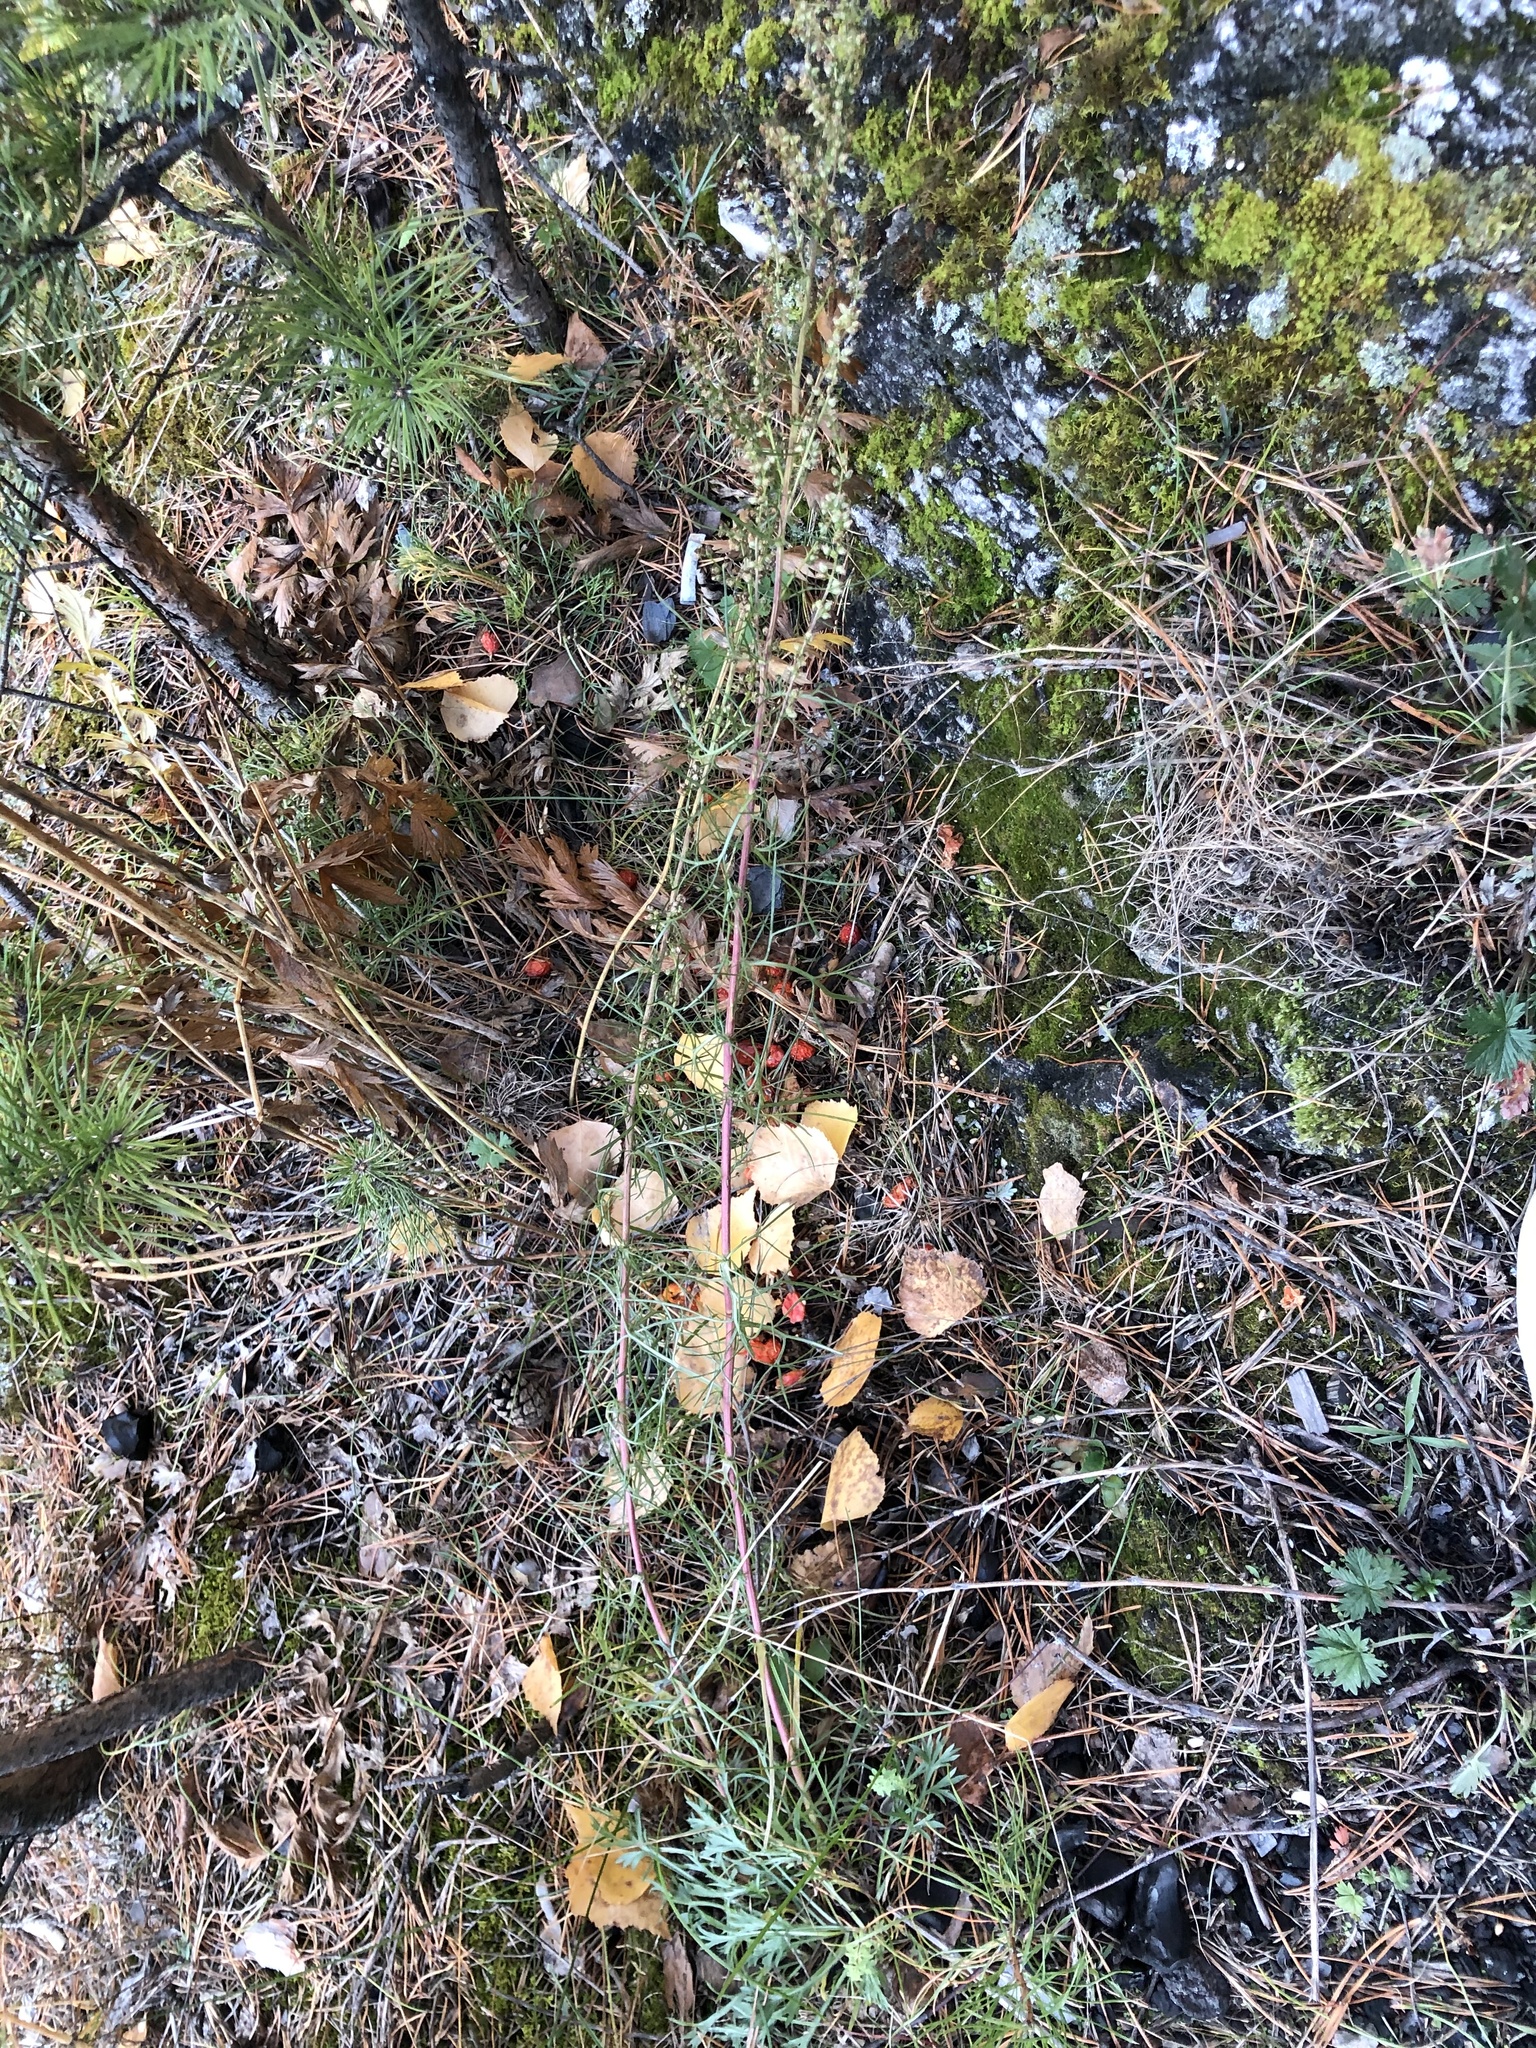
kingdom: Plantae
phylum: Tracheophyta
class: Magnoliopsida
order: Asterales
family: Asteraceae
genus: Artemisia
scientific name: Artemisia pubescens
